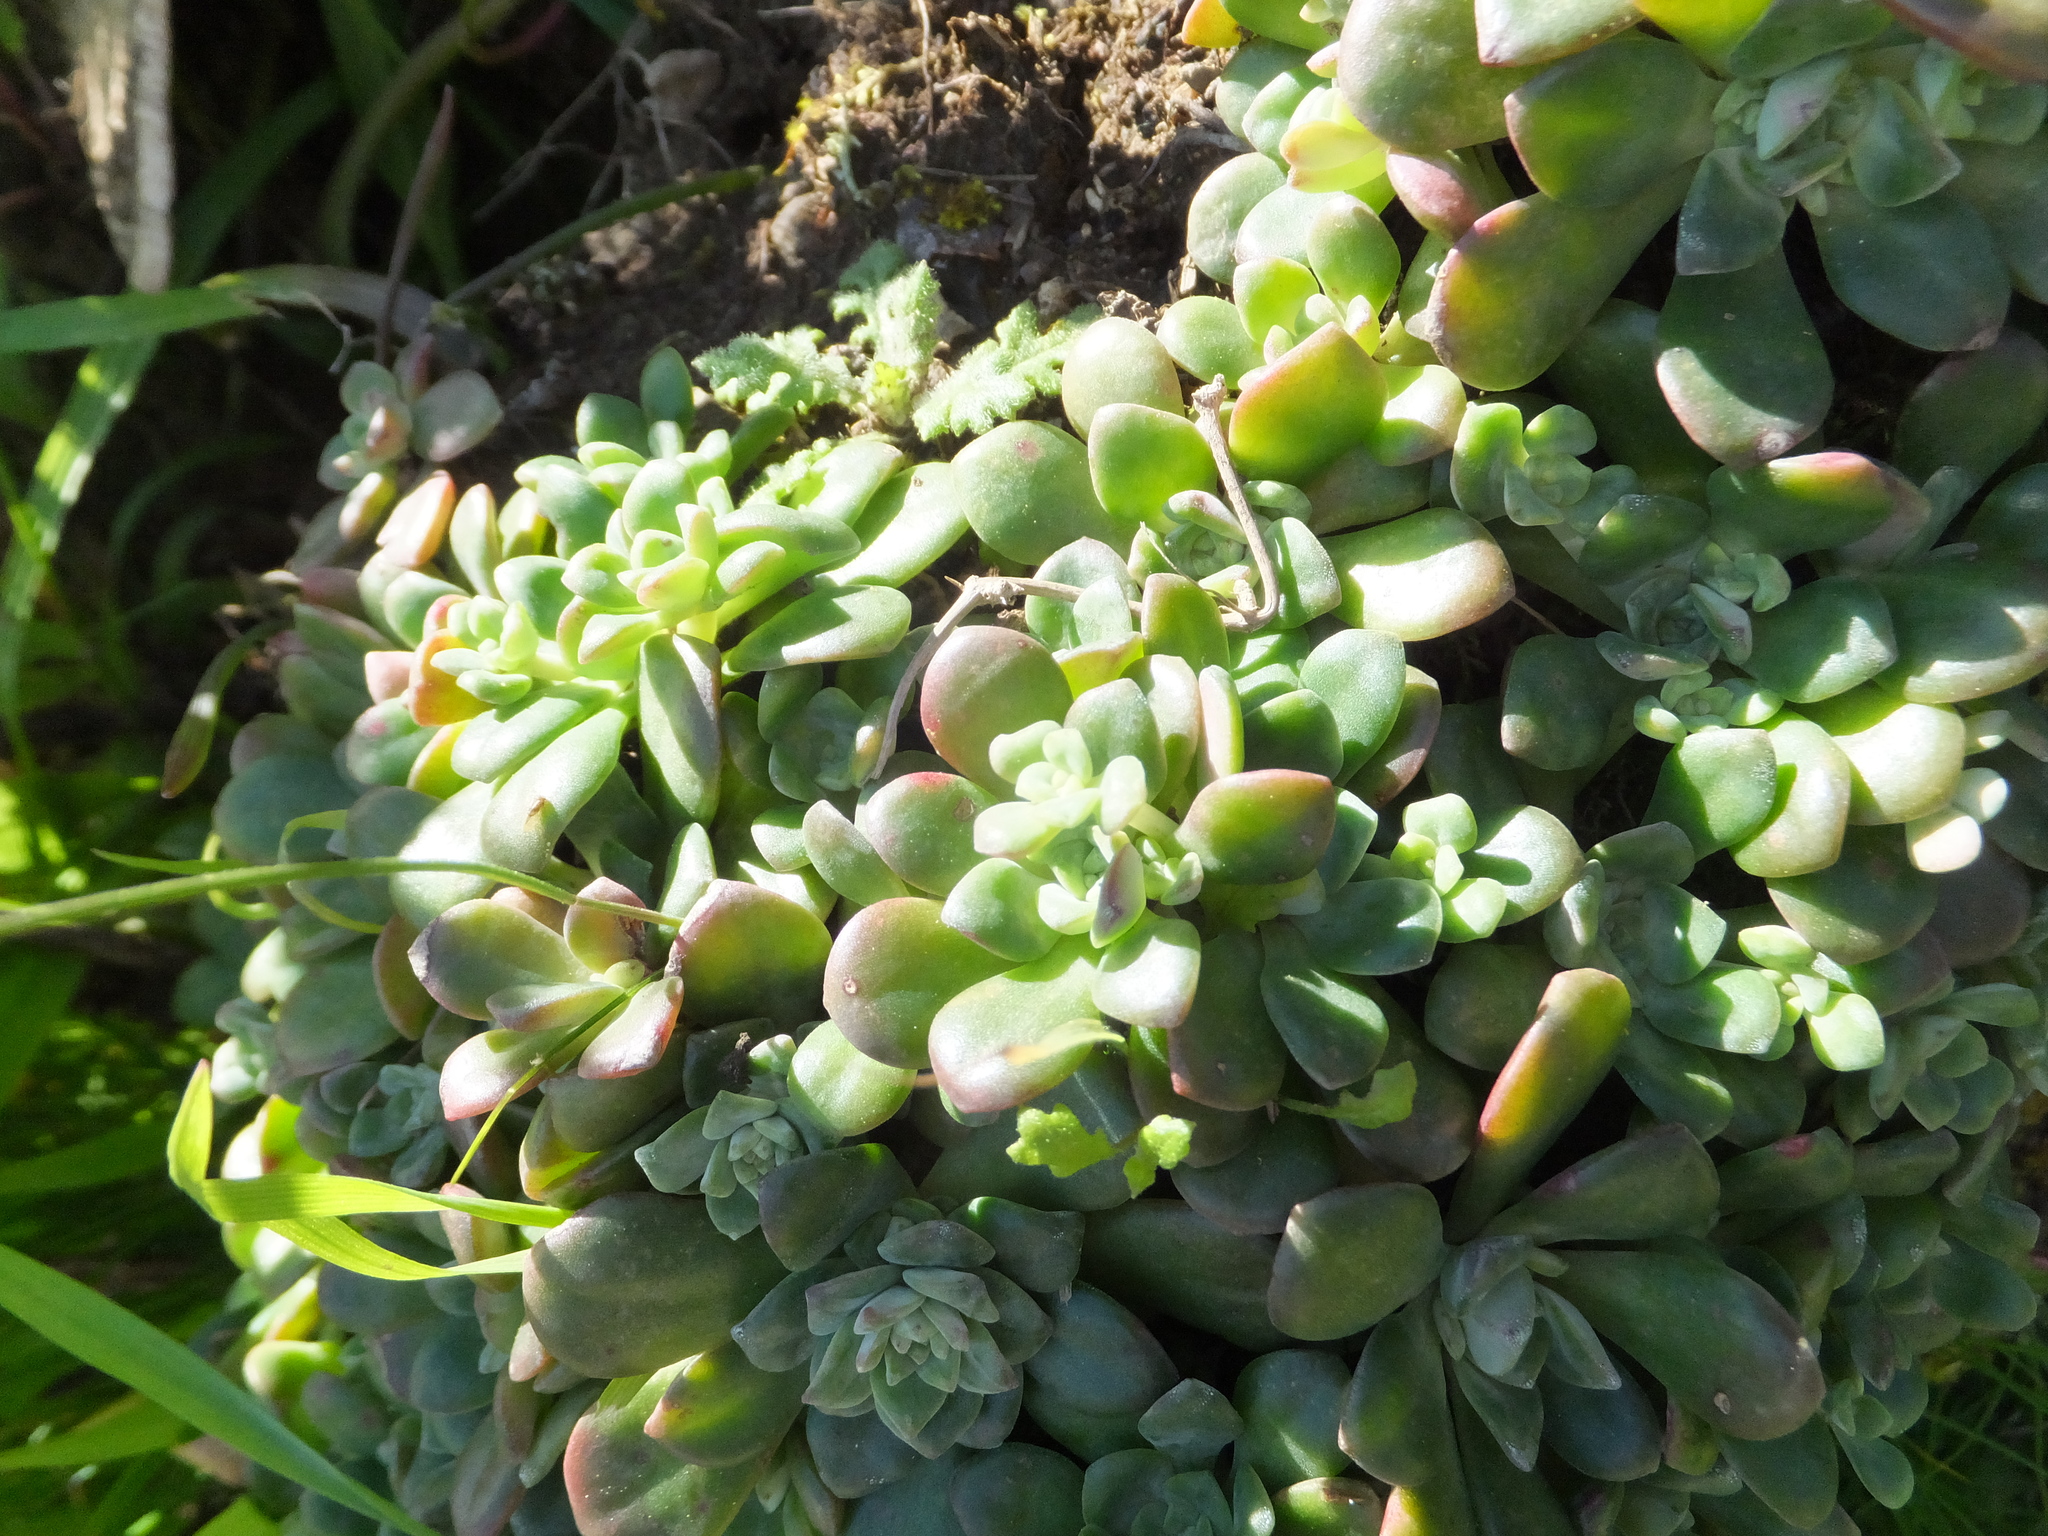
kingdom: Plantae
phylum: Tracheophyta
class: Magnoliopsida
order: Saxifragales
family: Crassulaceae
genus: Sedum
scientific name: Sedum spathulifolium
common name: Colorado stonecrop
